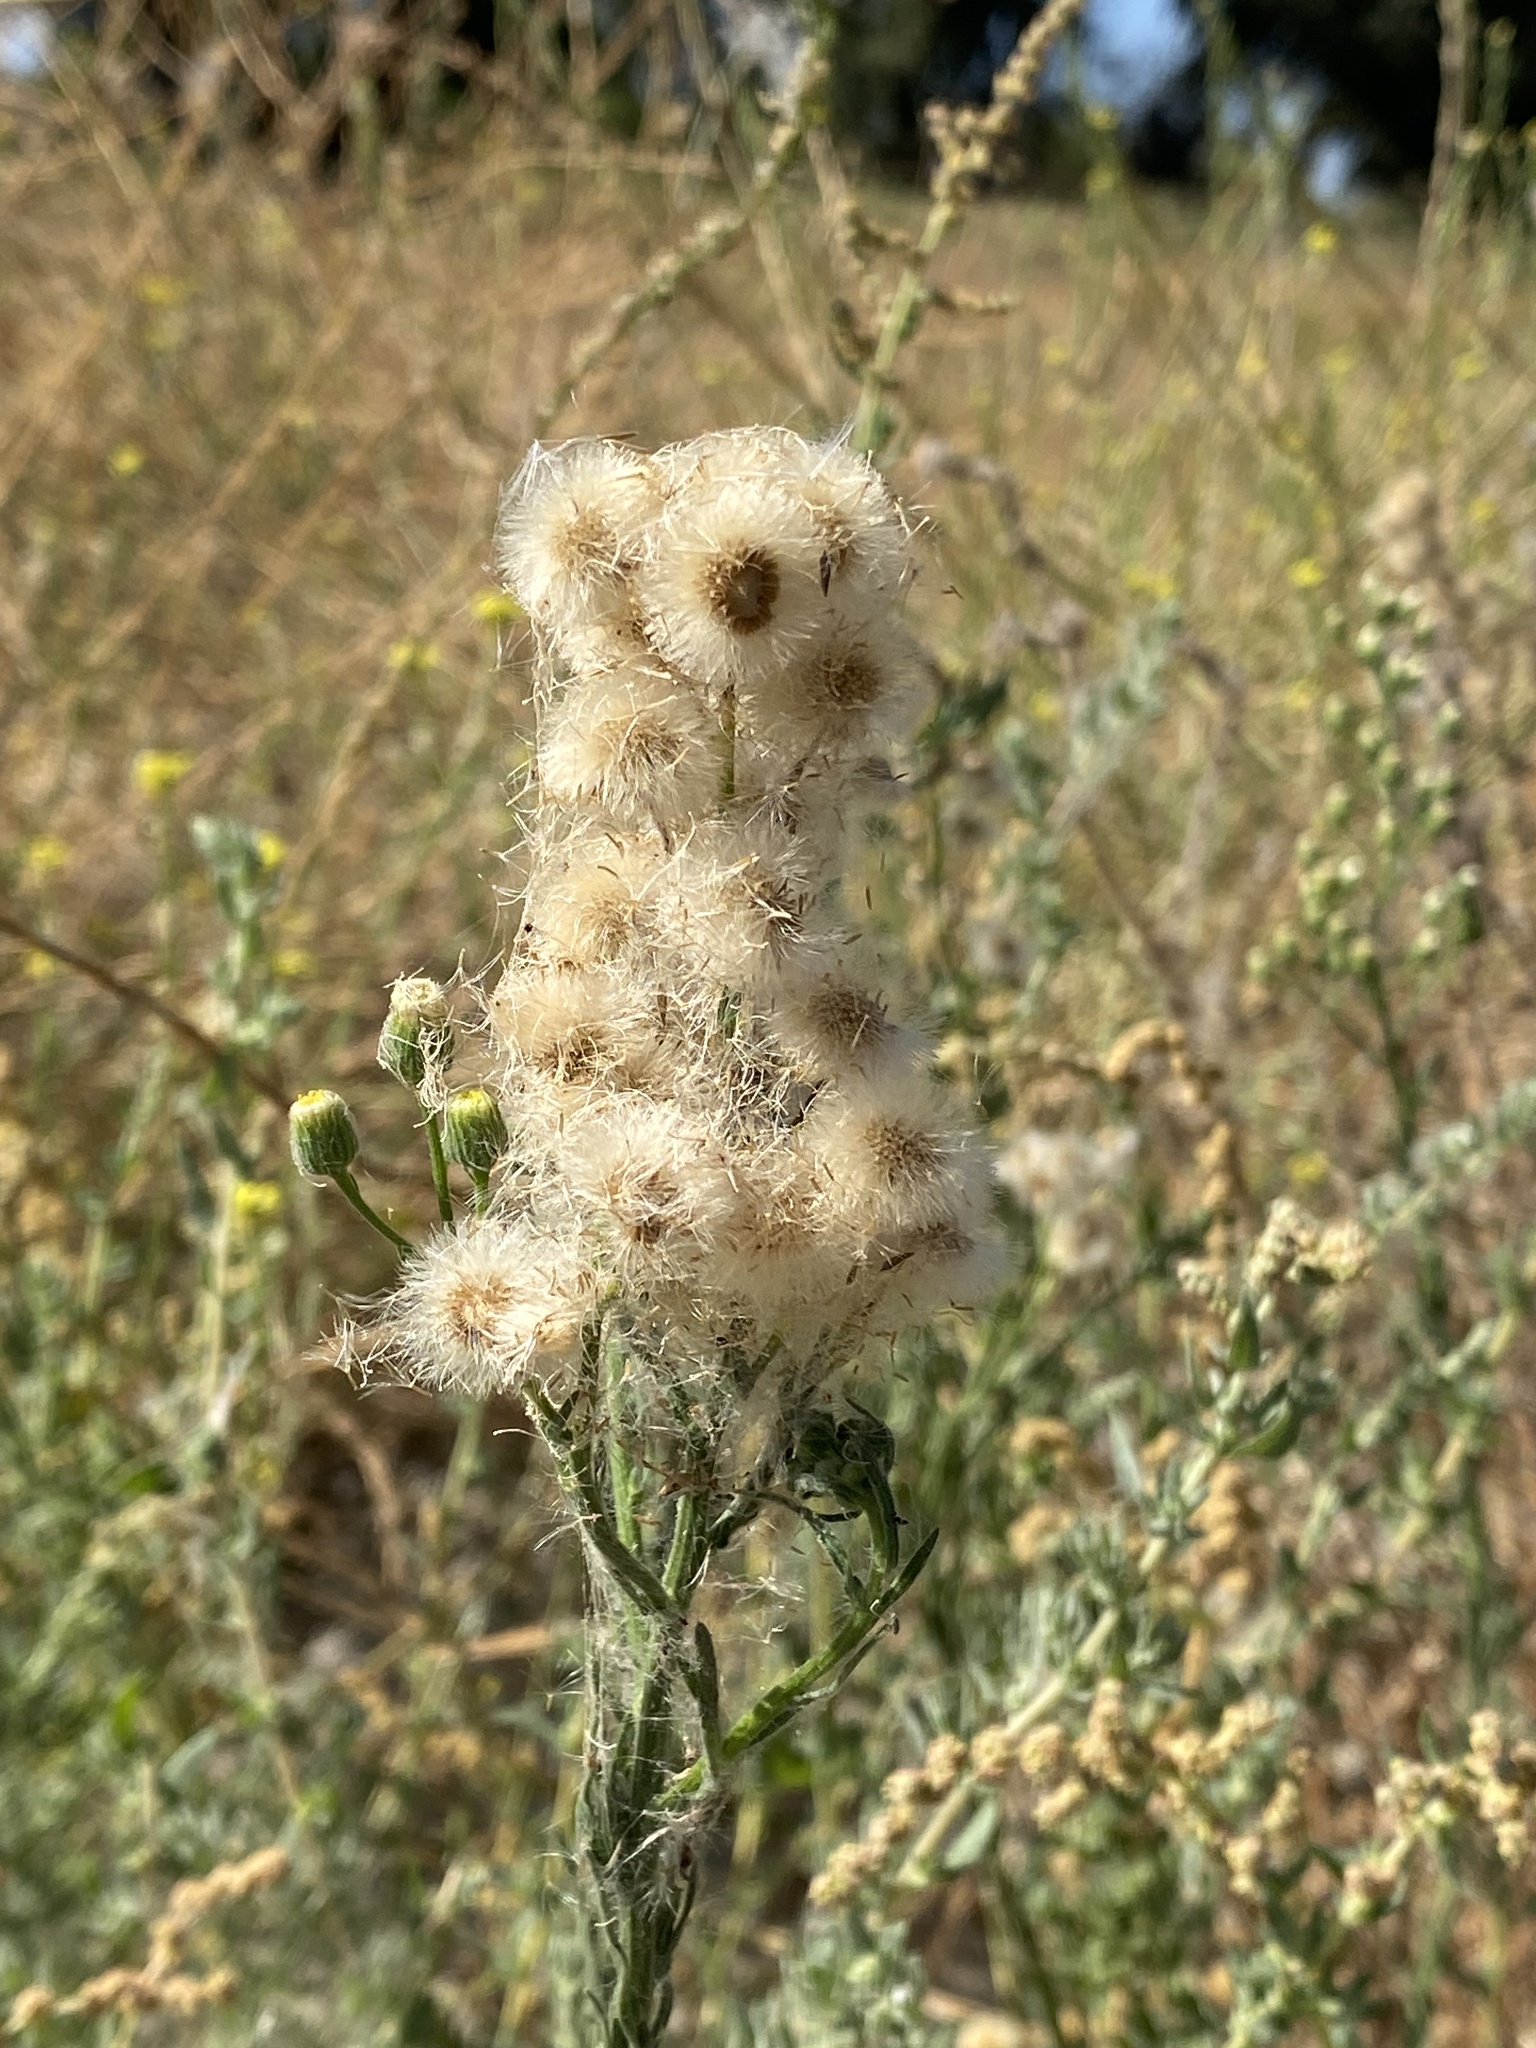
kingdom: Plantae
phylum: Tracheophyta
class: Magnoliopsida
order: Asterales
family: Asteraceae
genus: Erigeron
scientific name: Erigeron bonariensis
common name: Argentine fleabane
